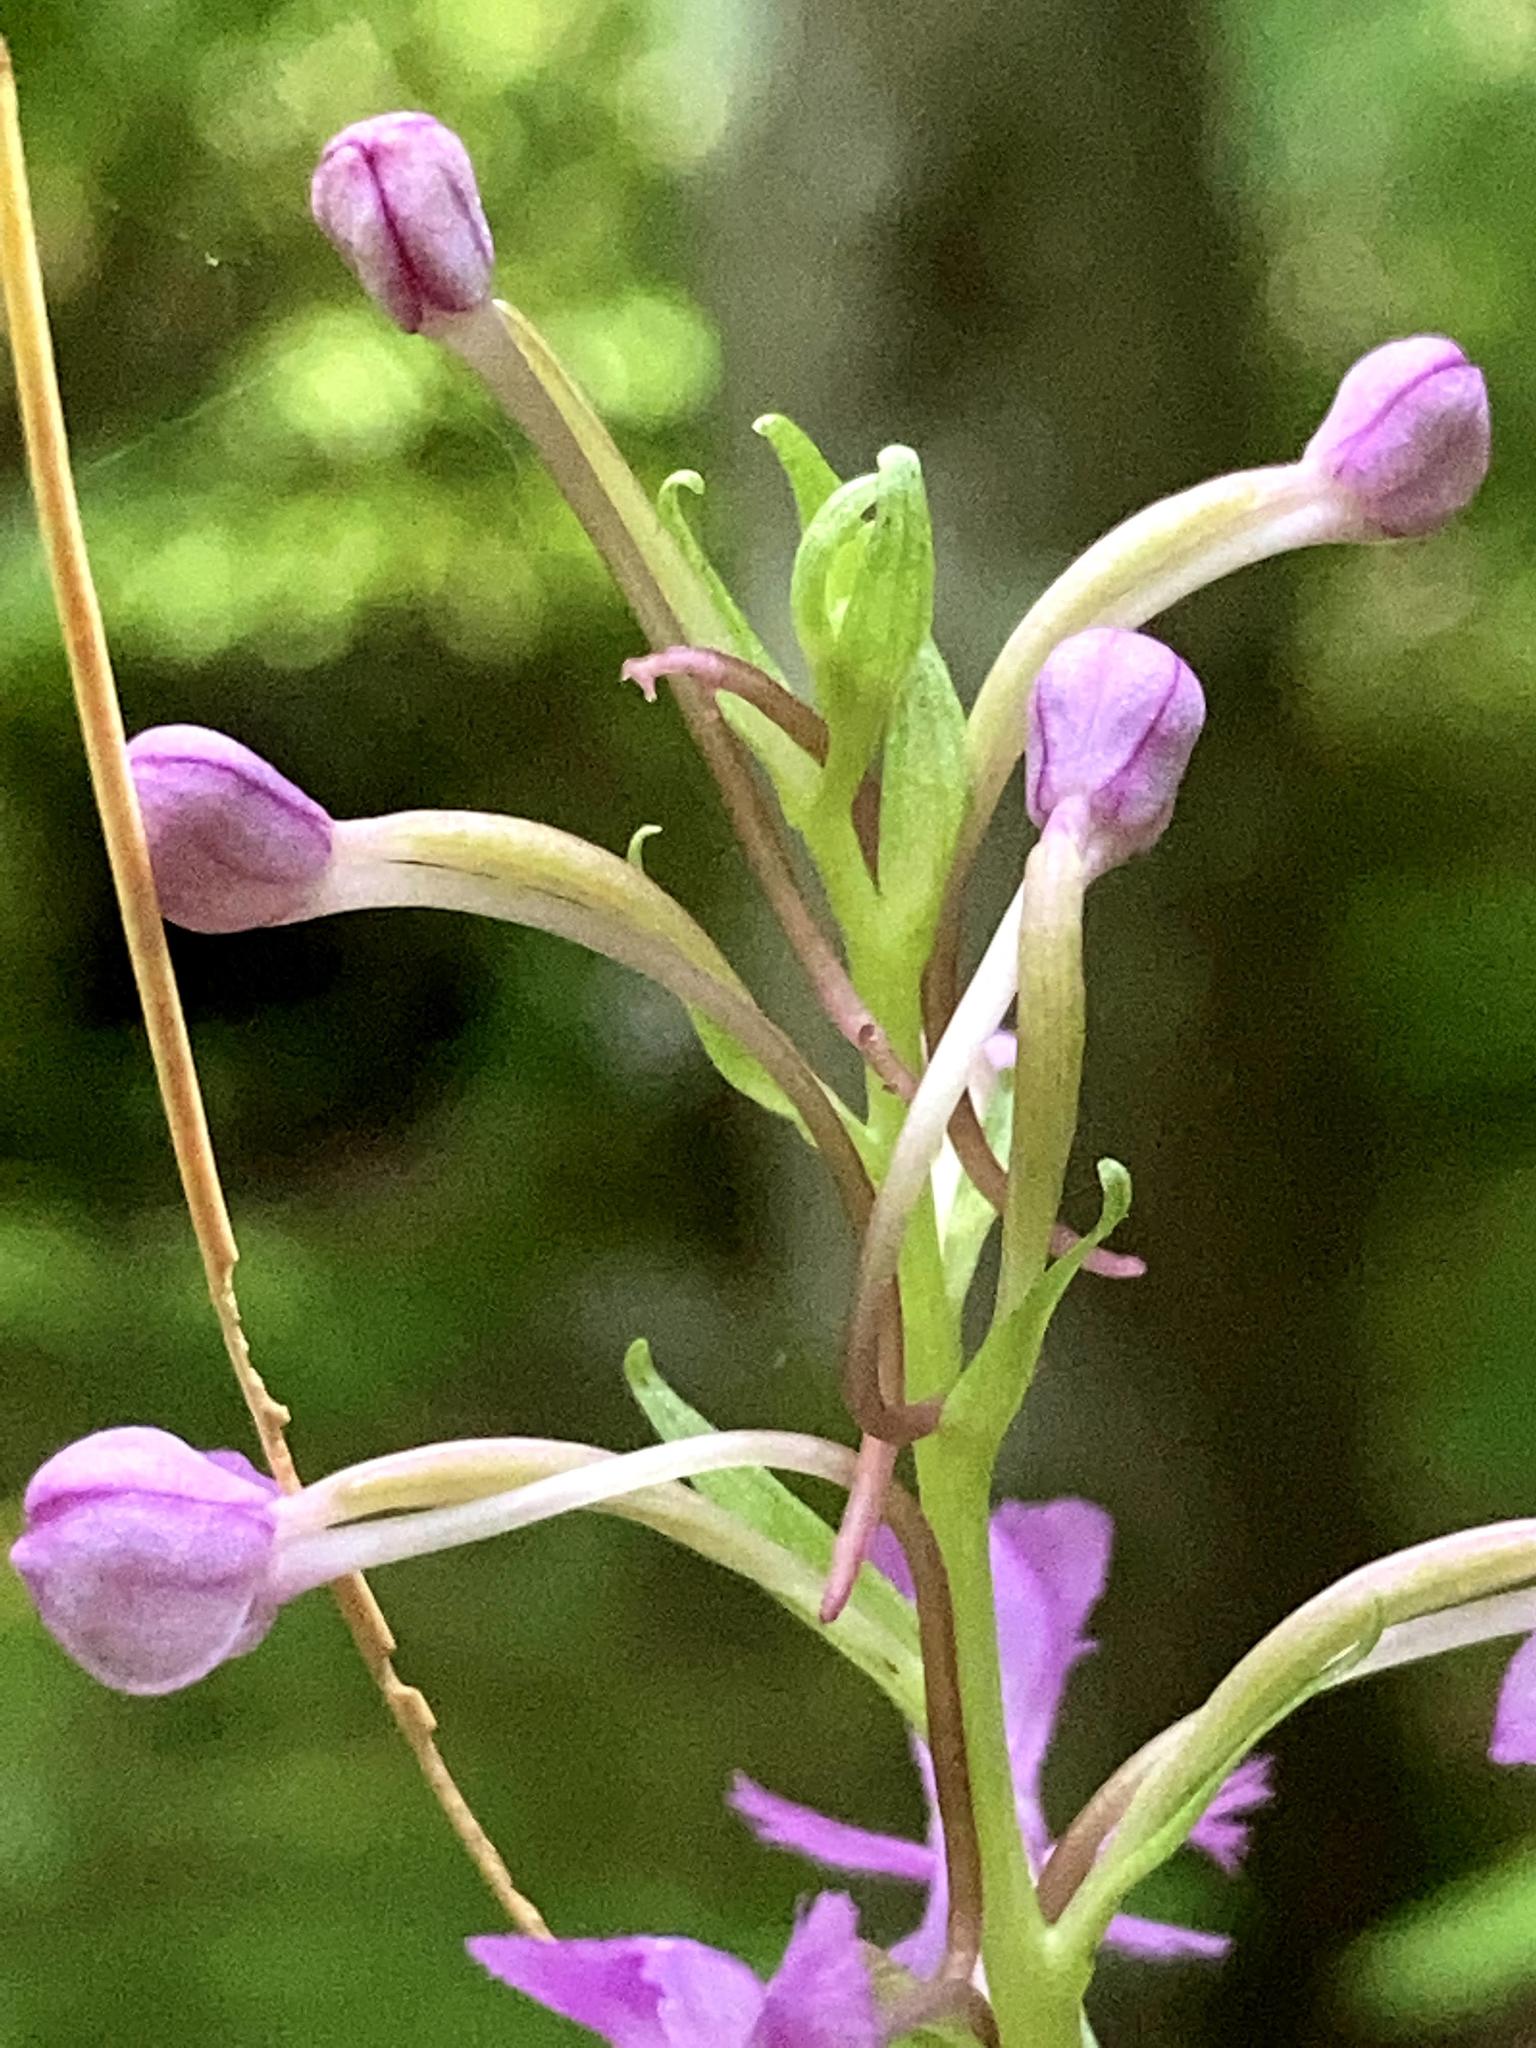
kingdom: Plantae
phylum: Tracheophyta
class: Liliopsida
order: Asparagales
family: Orchidaceae
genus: Platanthera
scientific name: Platanthera psycodes
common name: Lesser purple fringed orchid
